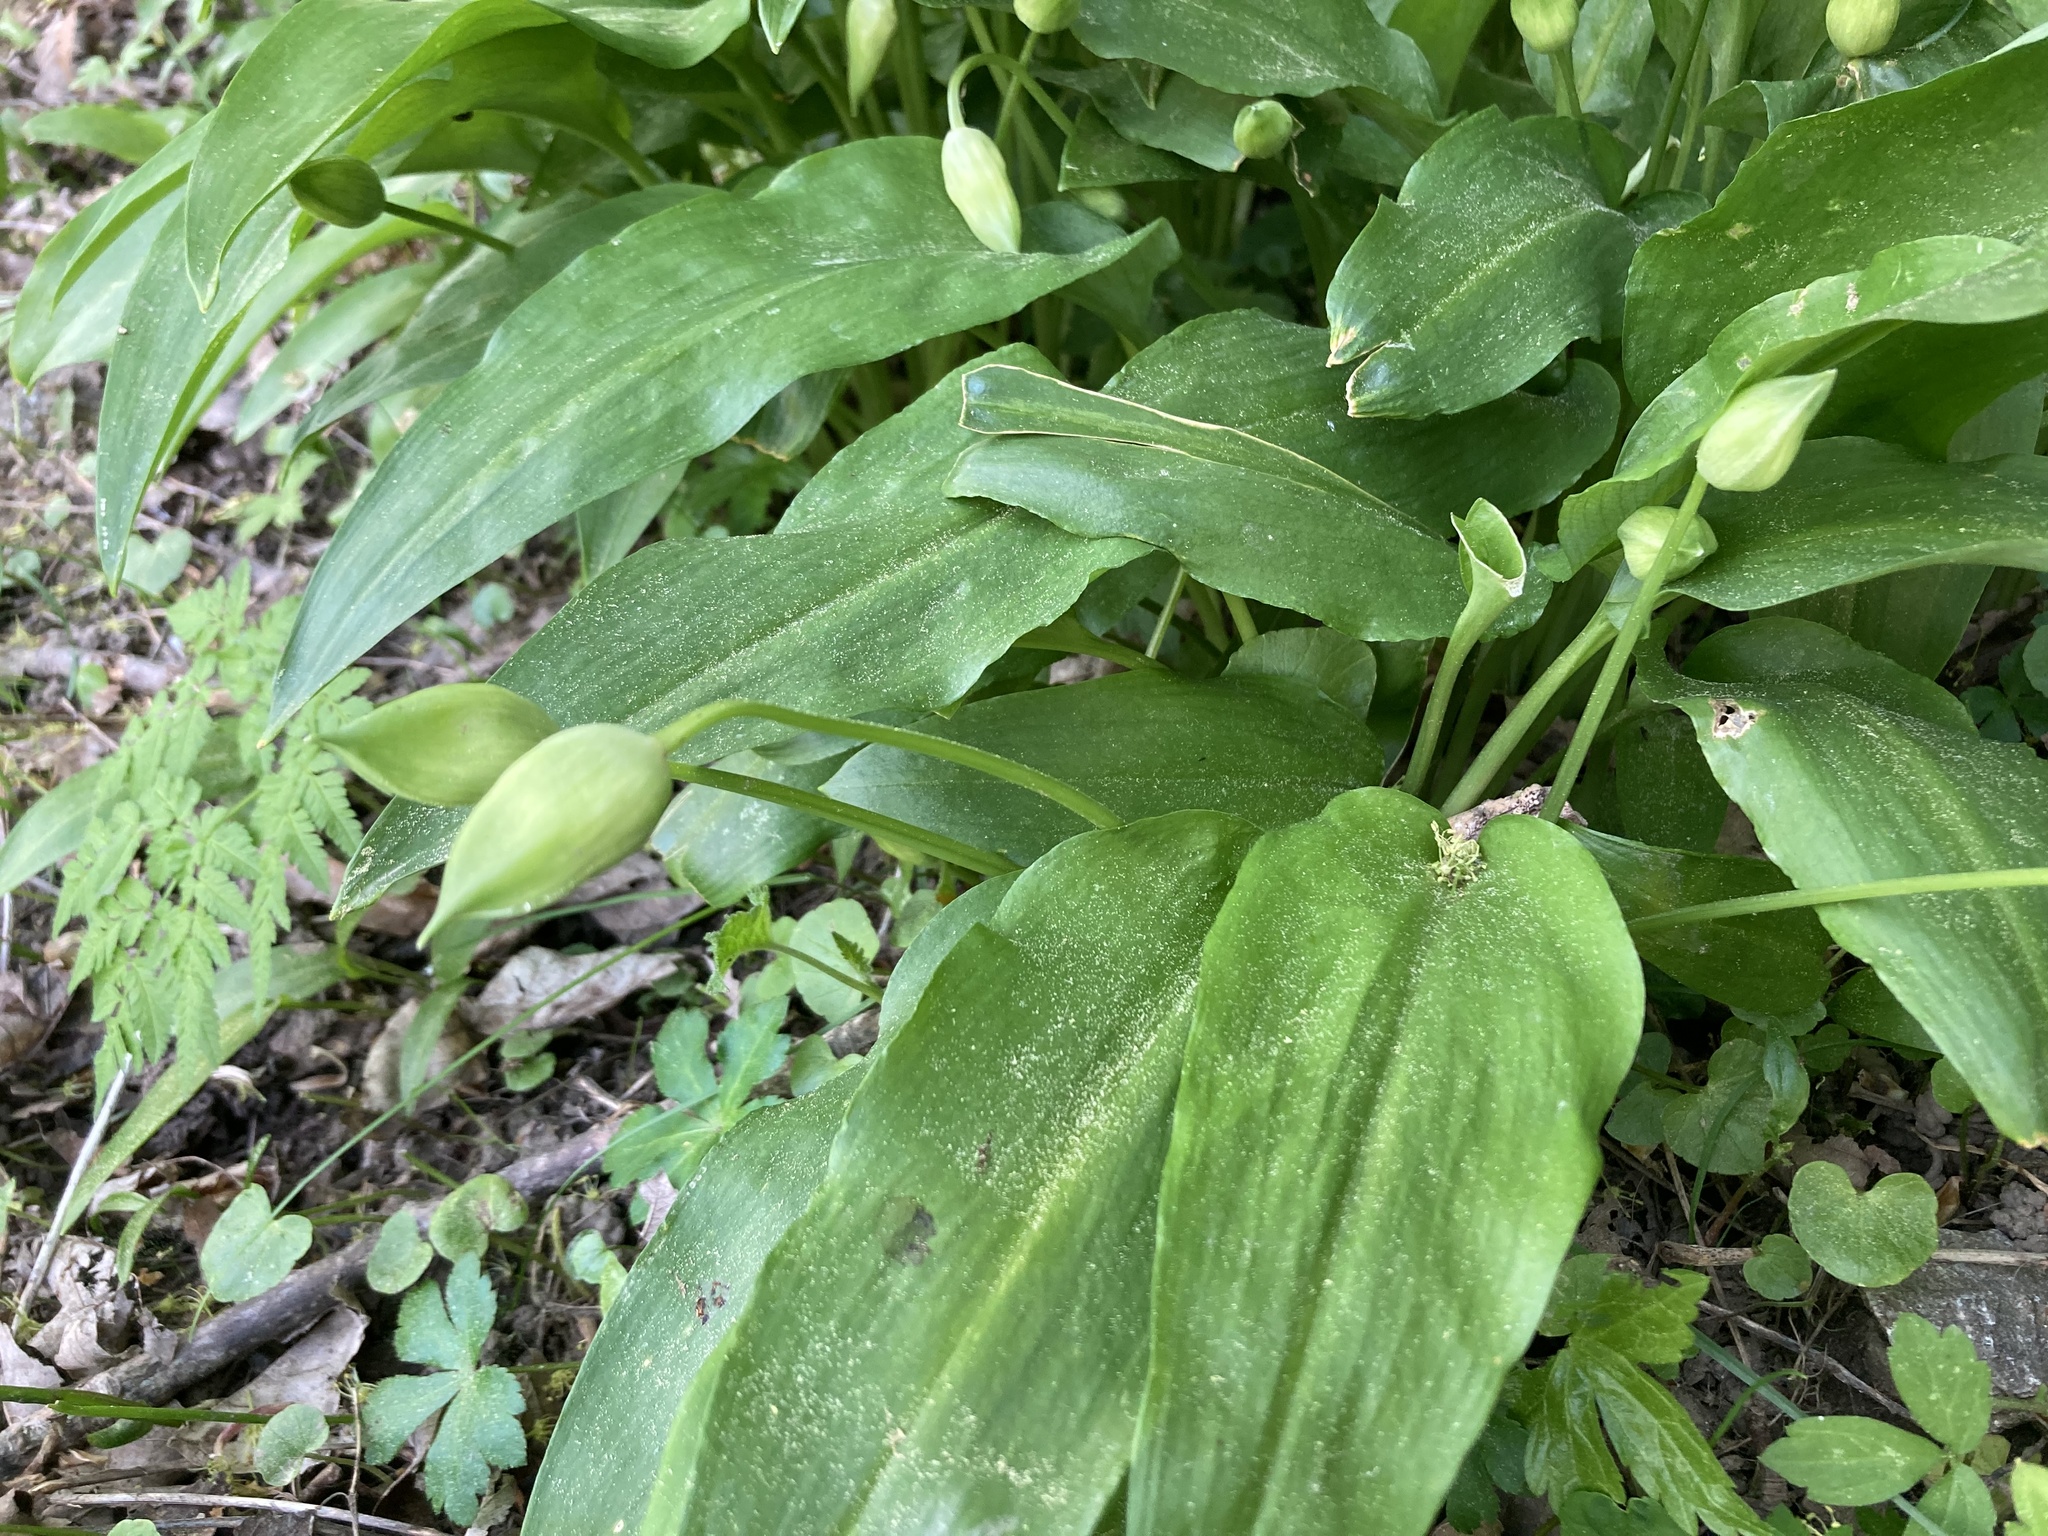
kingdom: Plantae
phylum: Tracheophyta
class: Liliopsida
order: Asparagales
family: Amaryllidaceae
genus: Allium
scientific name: Allium ursinum
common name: Ramsons
